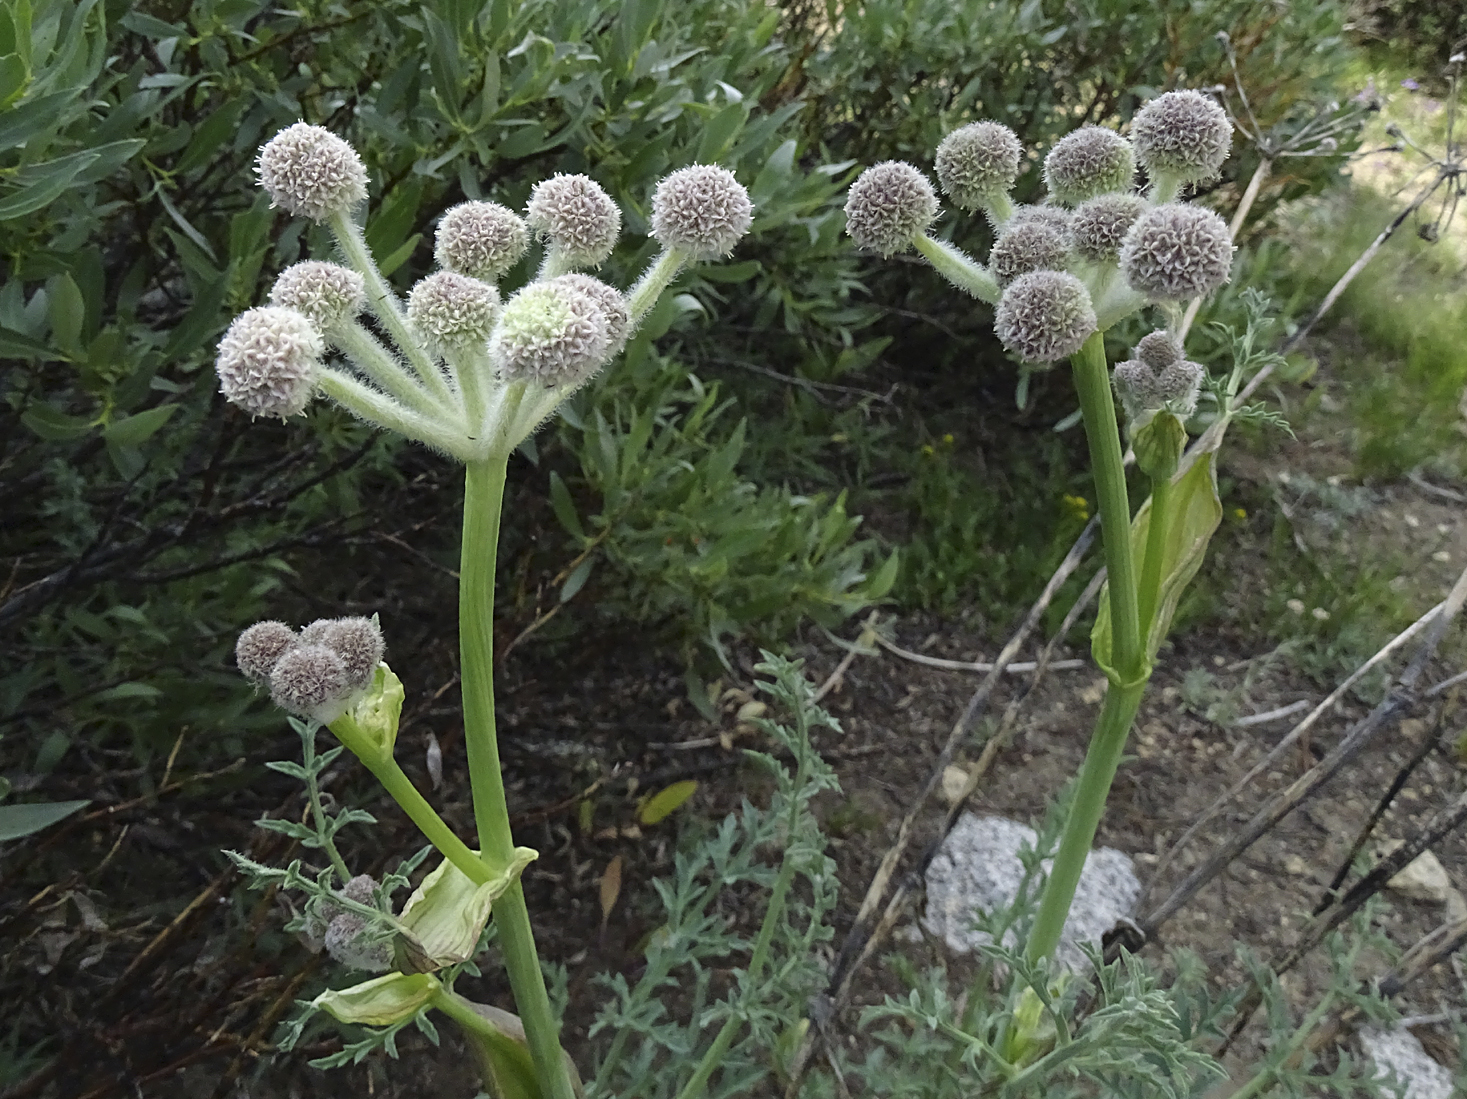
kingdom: Plantae
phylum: Tracheophyta
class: Magnoliopsida
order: Apiales
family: Apiaceae
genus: Angelica
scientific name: Angelica capitellata
